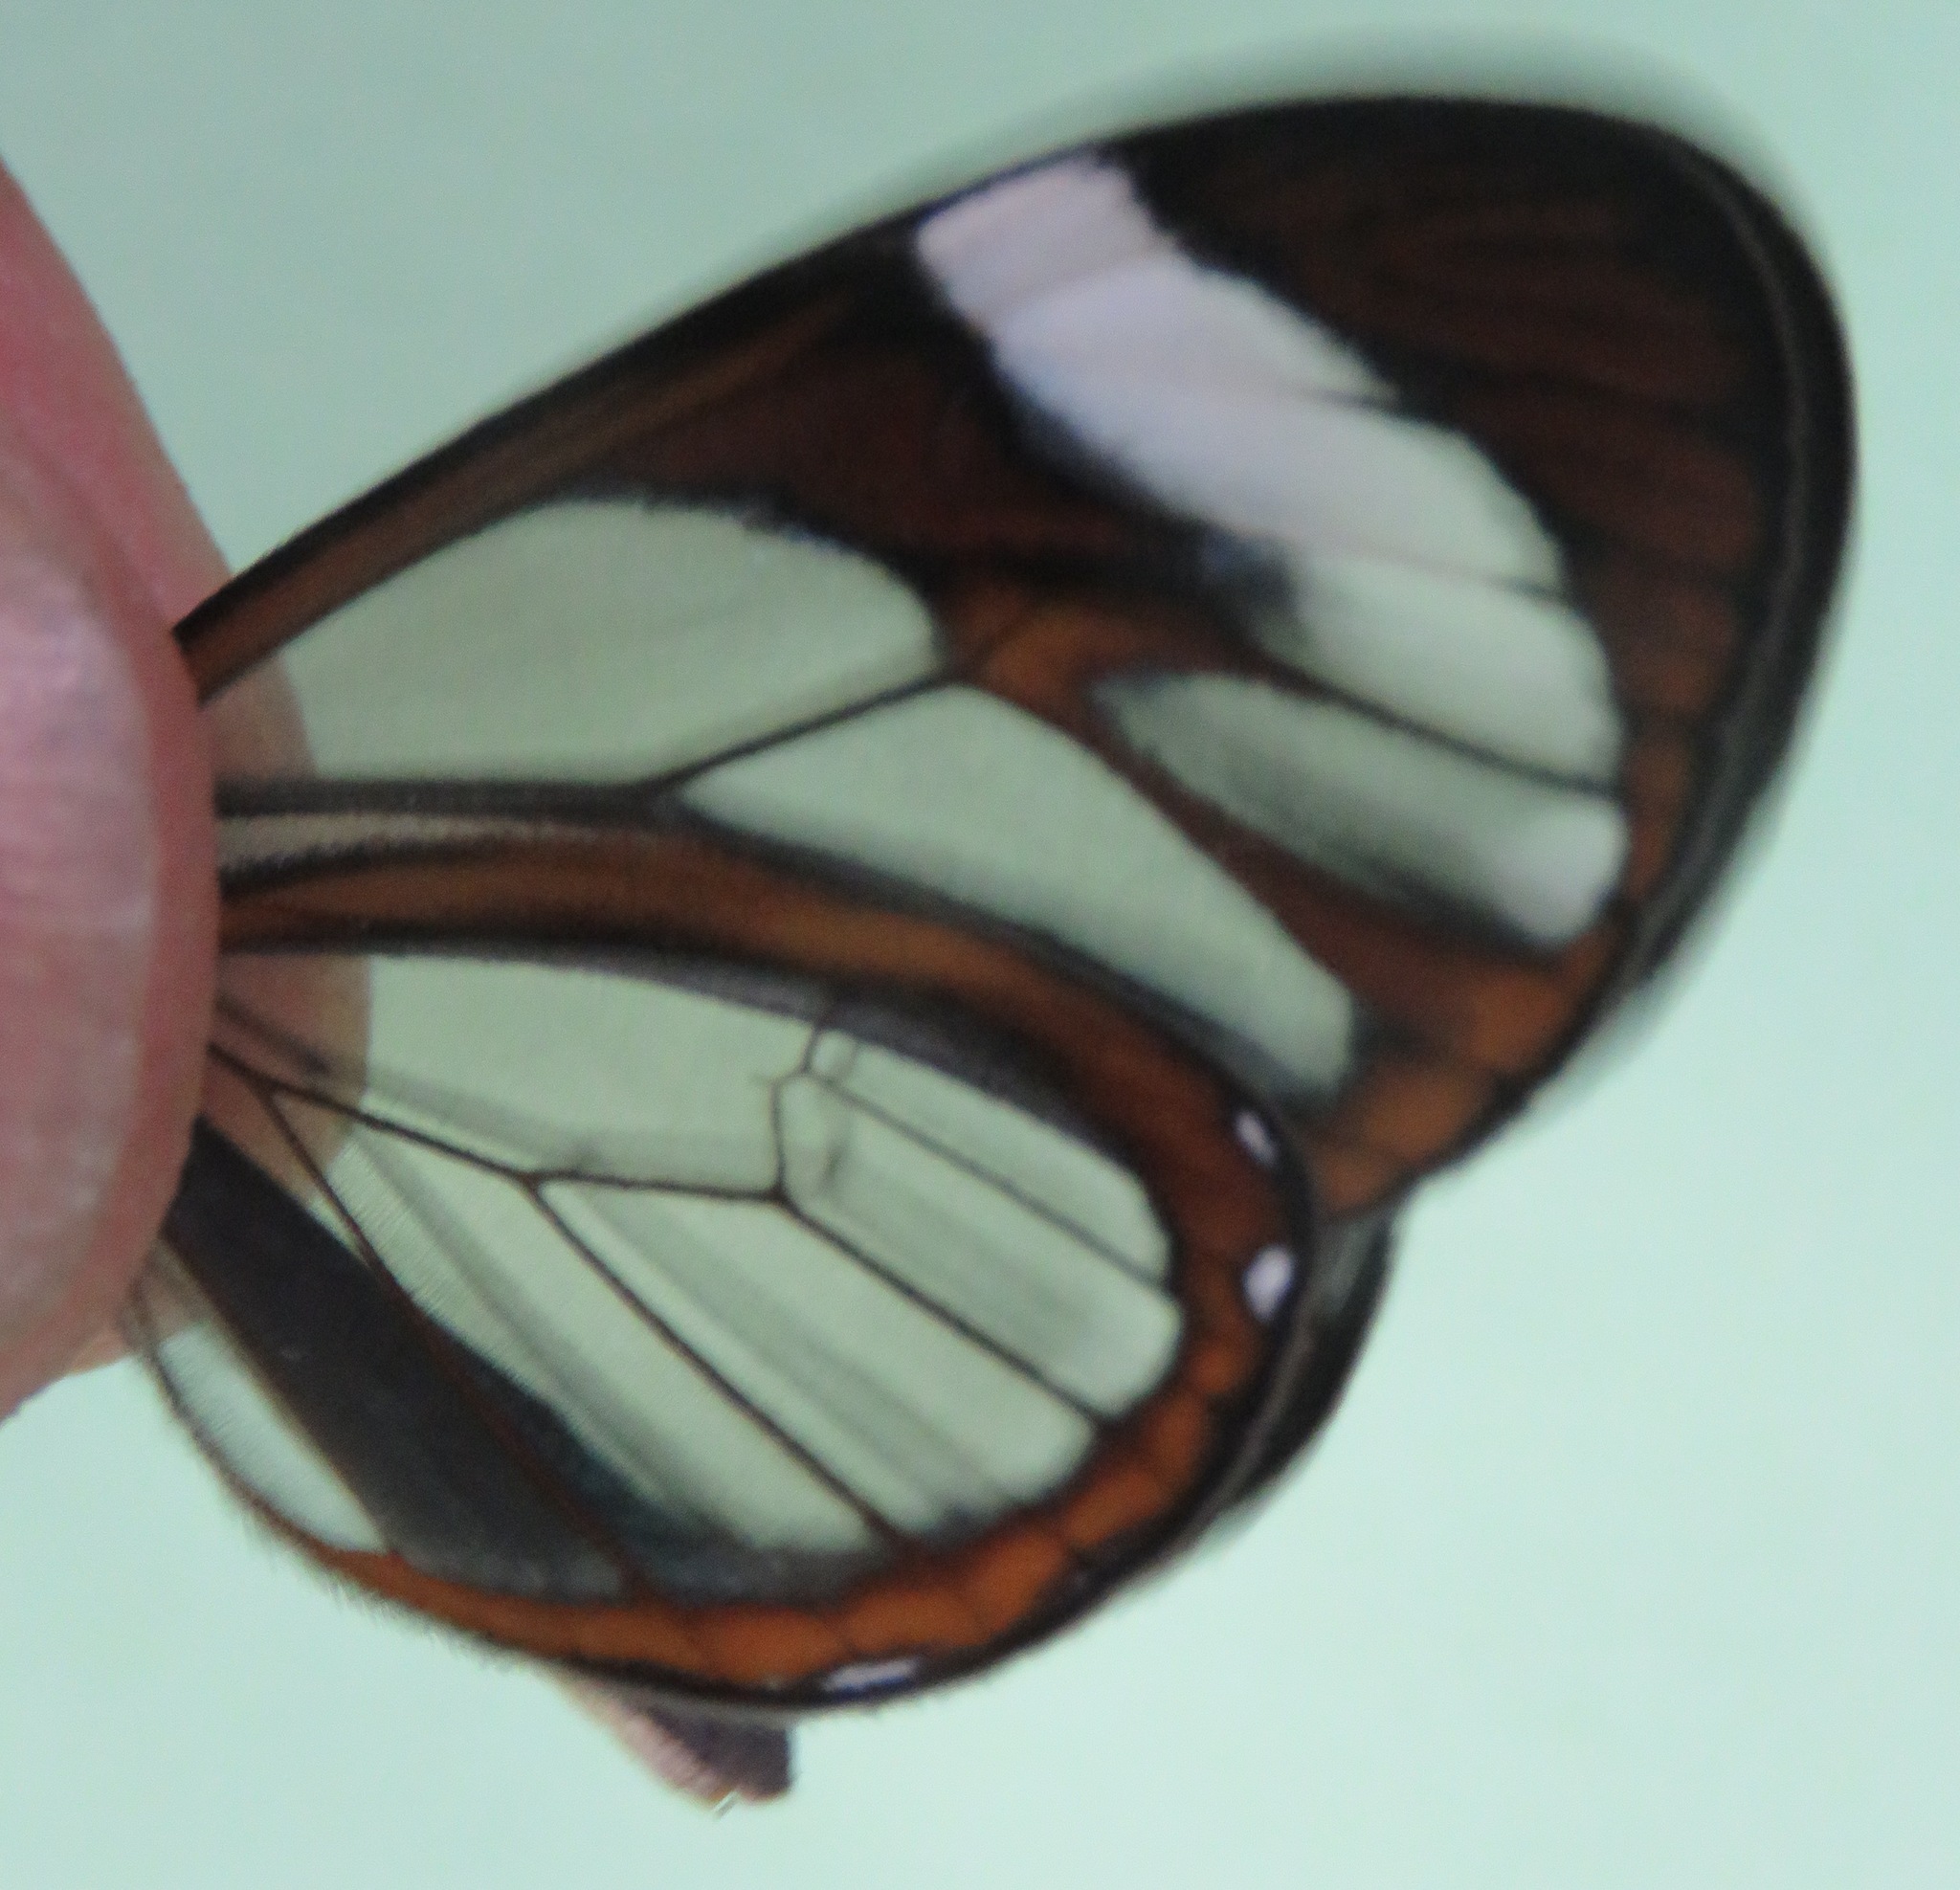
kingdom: Animalia
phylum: Arthropoda
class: Insecta
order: Lepidoptera
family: Nymphalidae
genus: Ithomia
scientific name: Ithomia patilla
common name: Patilla clearwing
